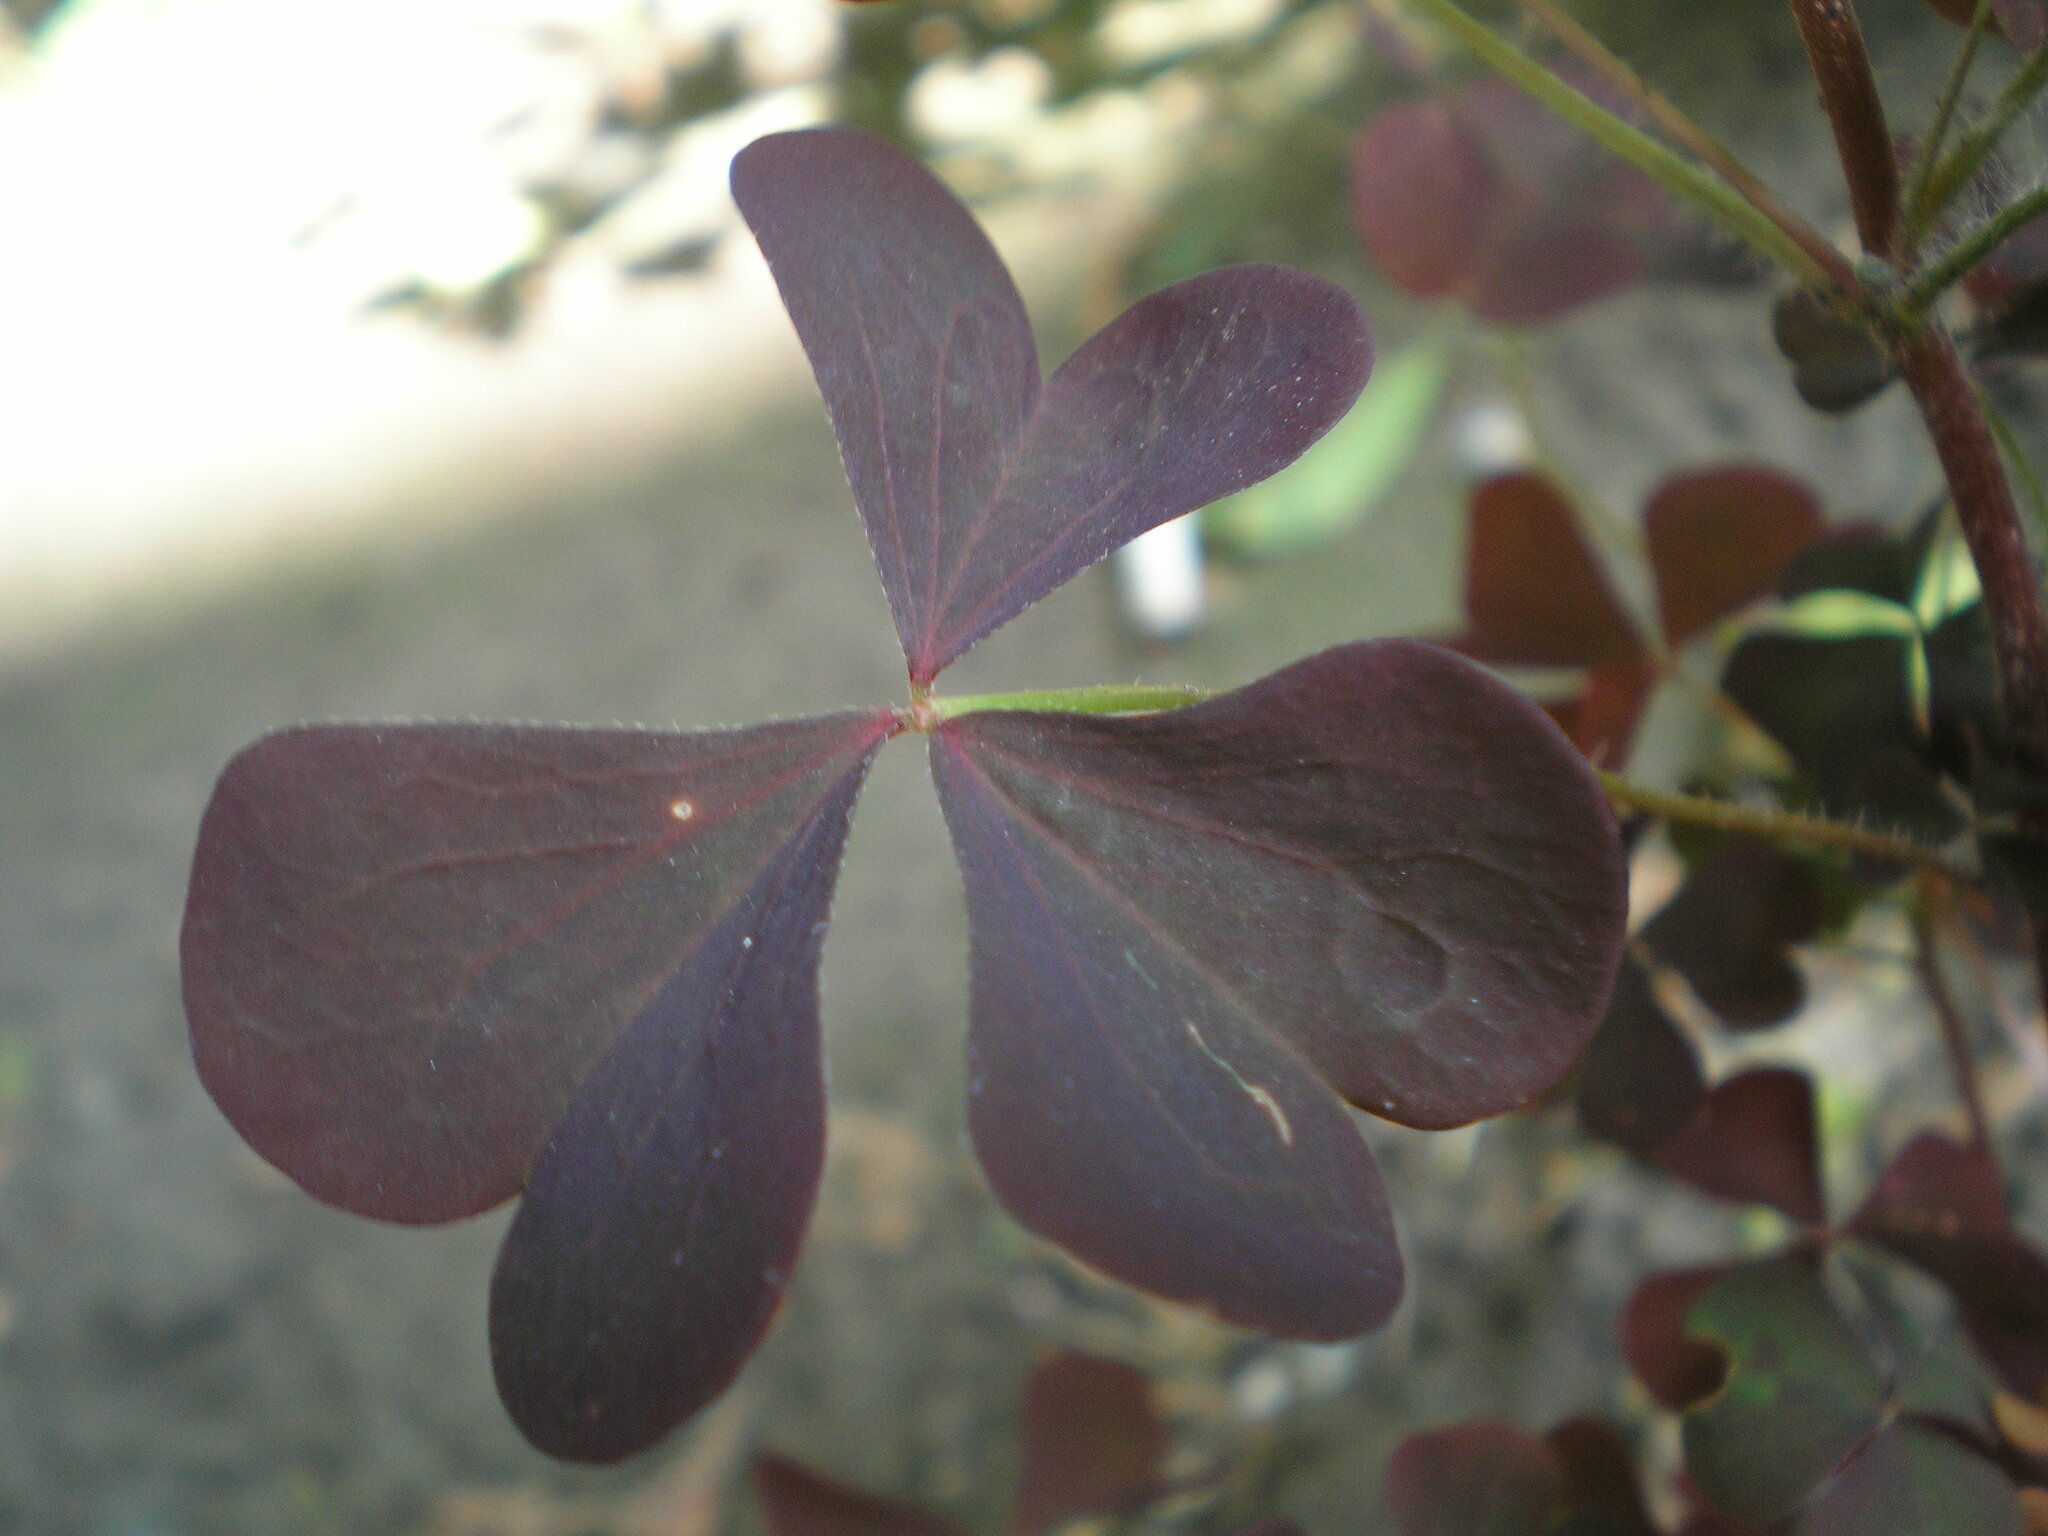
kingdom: Plantae
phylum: Tracheophyta
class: Magnoliopsida
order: Oxalidales
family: Oxalidaceae
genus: Oxalis
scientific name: Oxalis stricta
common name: Upright yellow-sorrel
